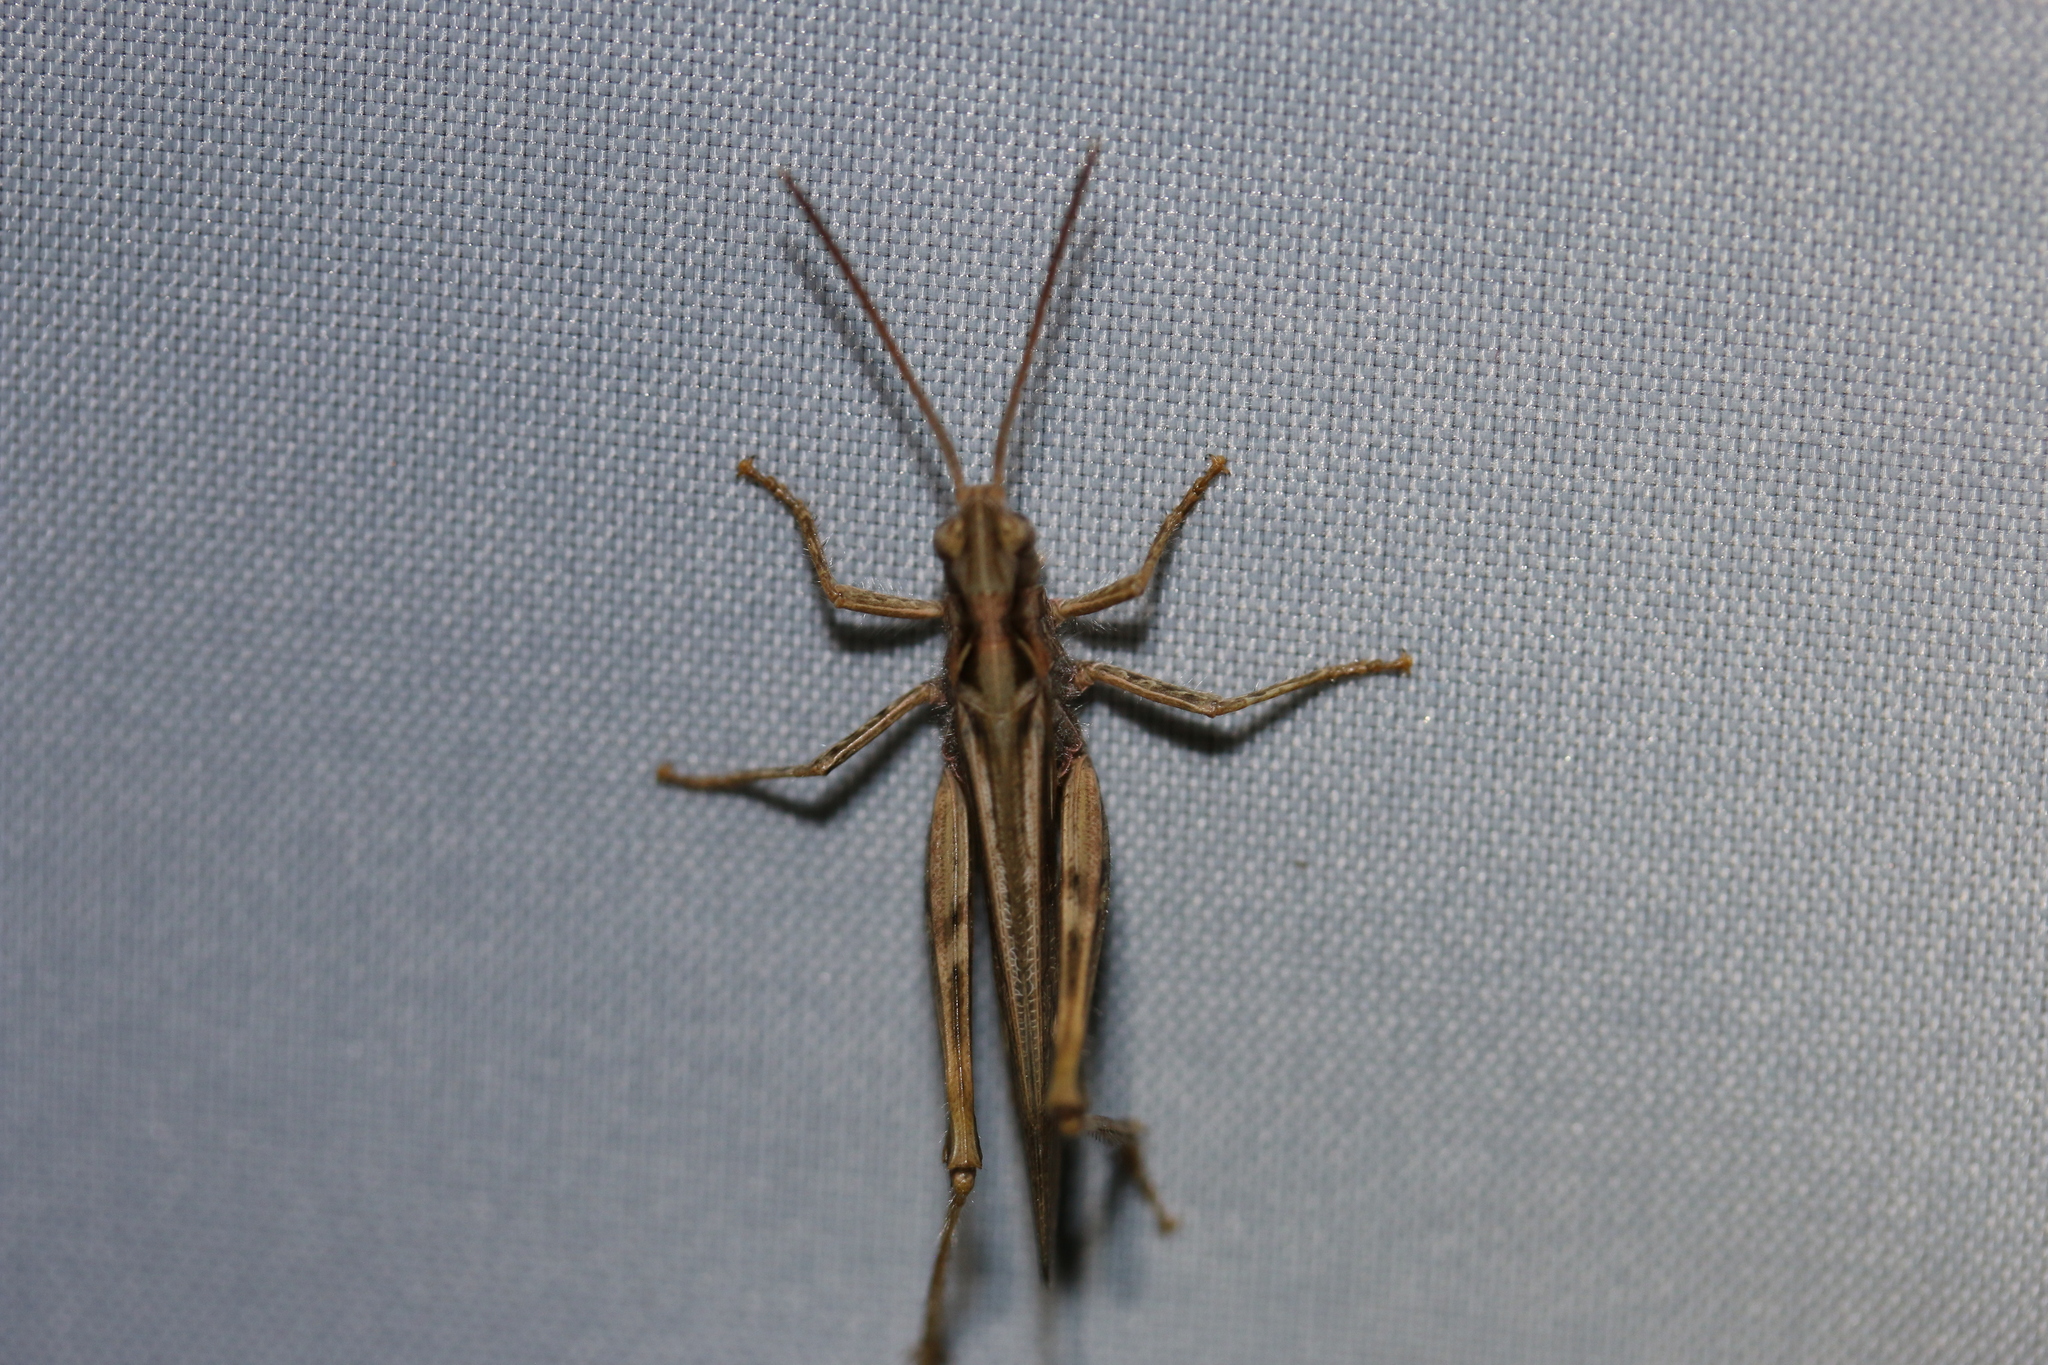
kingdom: Animalia
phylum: Arthropoda
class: Insecta
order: Orthoptera
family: Acrididae
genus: Chorthippus
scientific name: Chorthippus brunneus
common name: Field grasshopper
